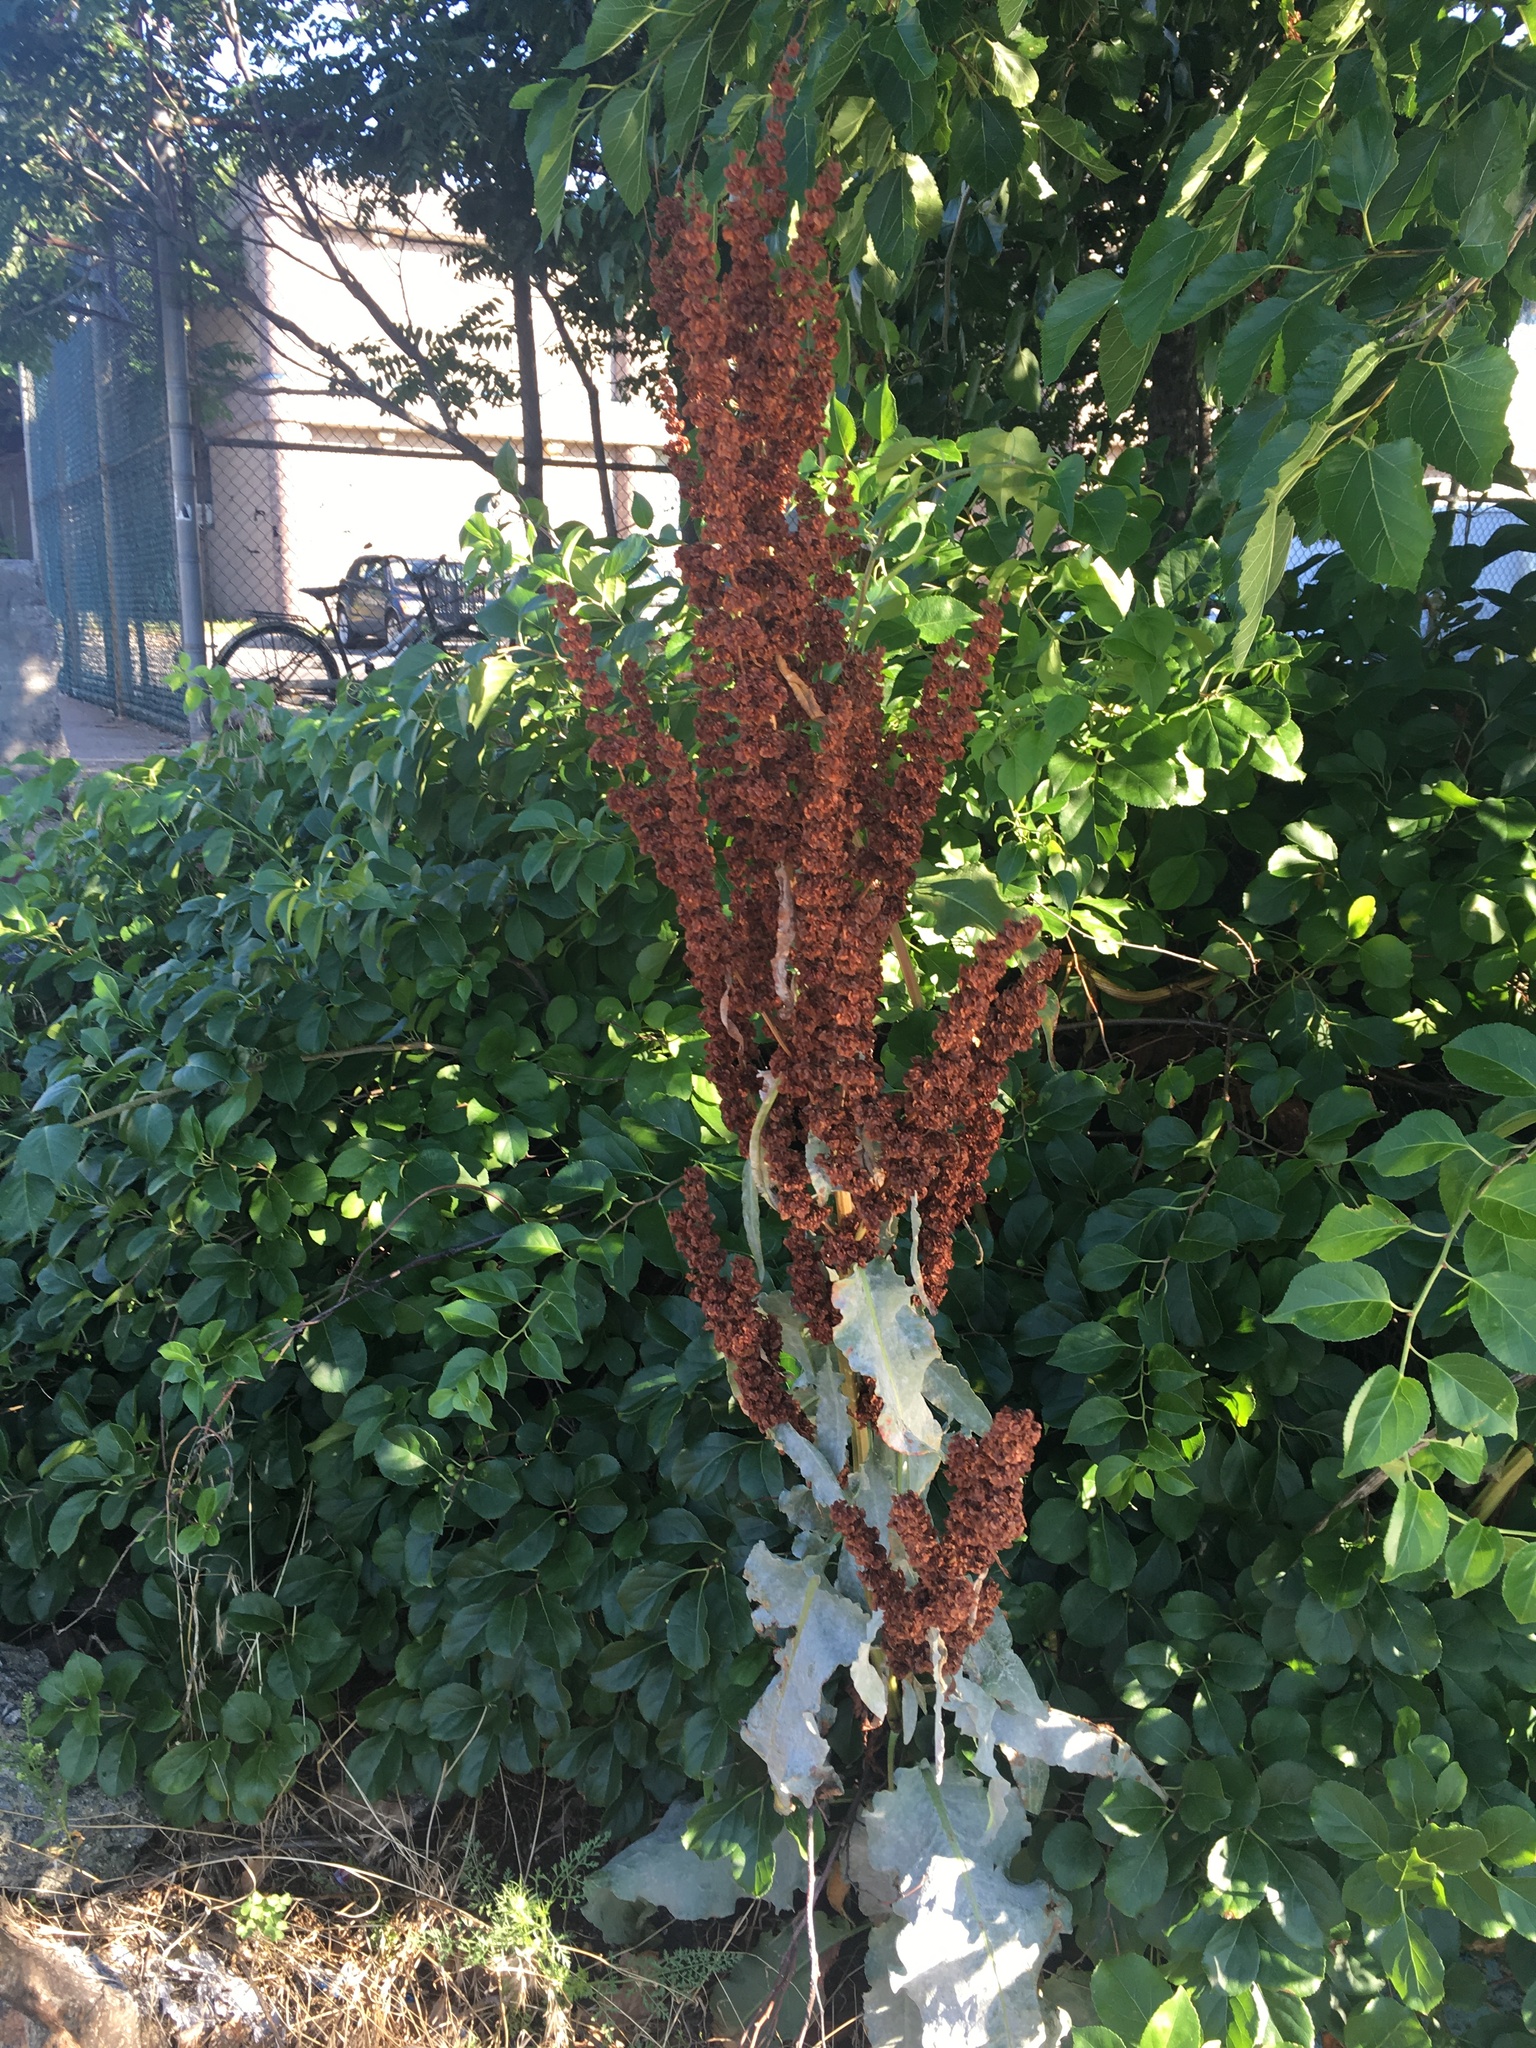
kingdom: Plantae
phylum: Tracheophyta
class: Magnoliopsida
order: Caryophyllales
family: Polygonaceae
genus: Rumex
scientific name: Rumex patientia
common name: Patience dock
